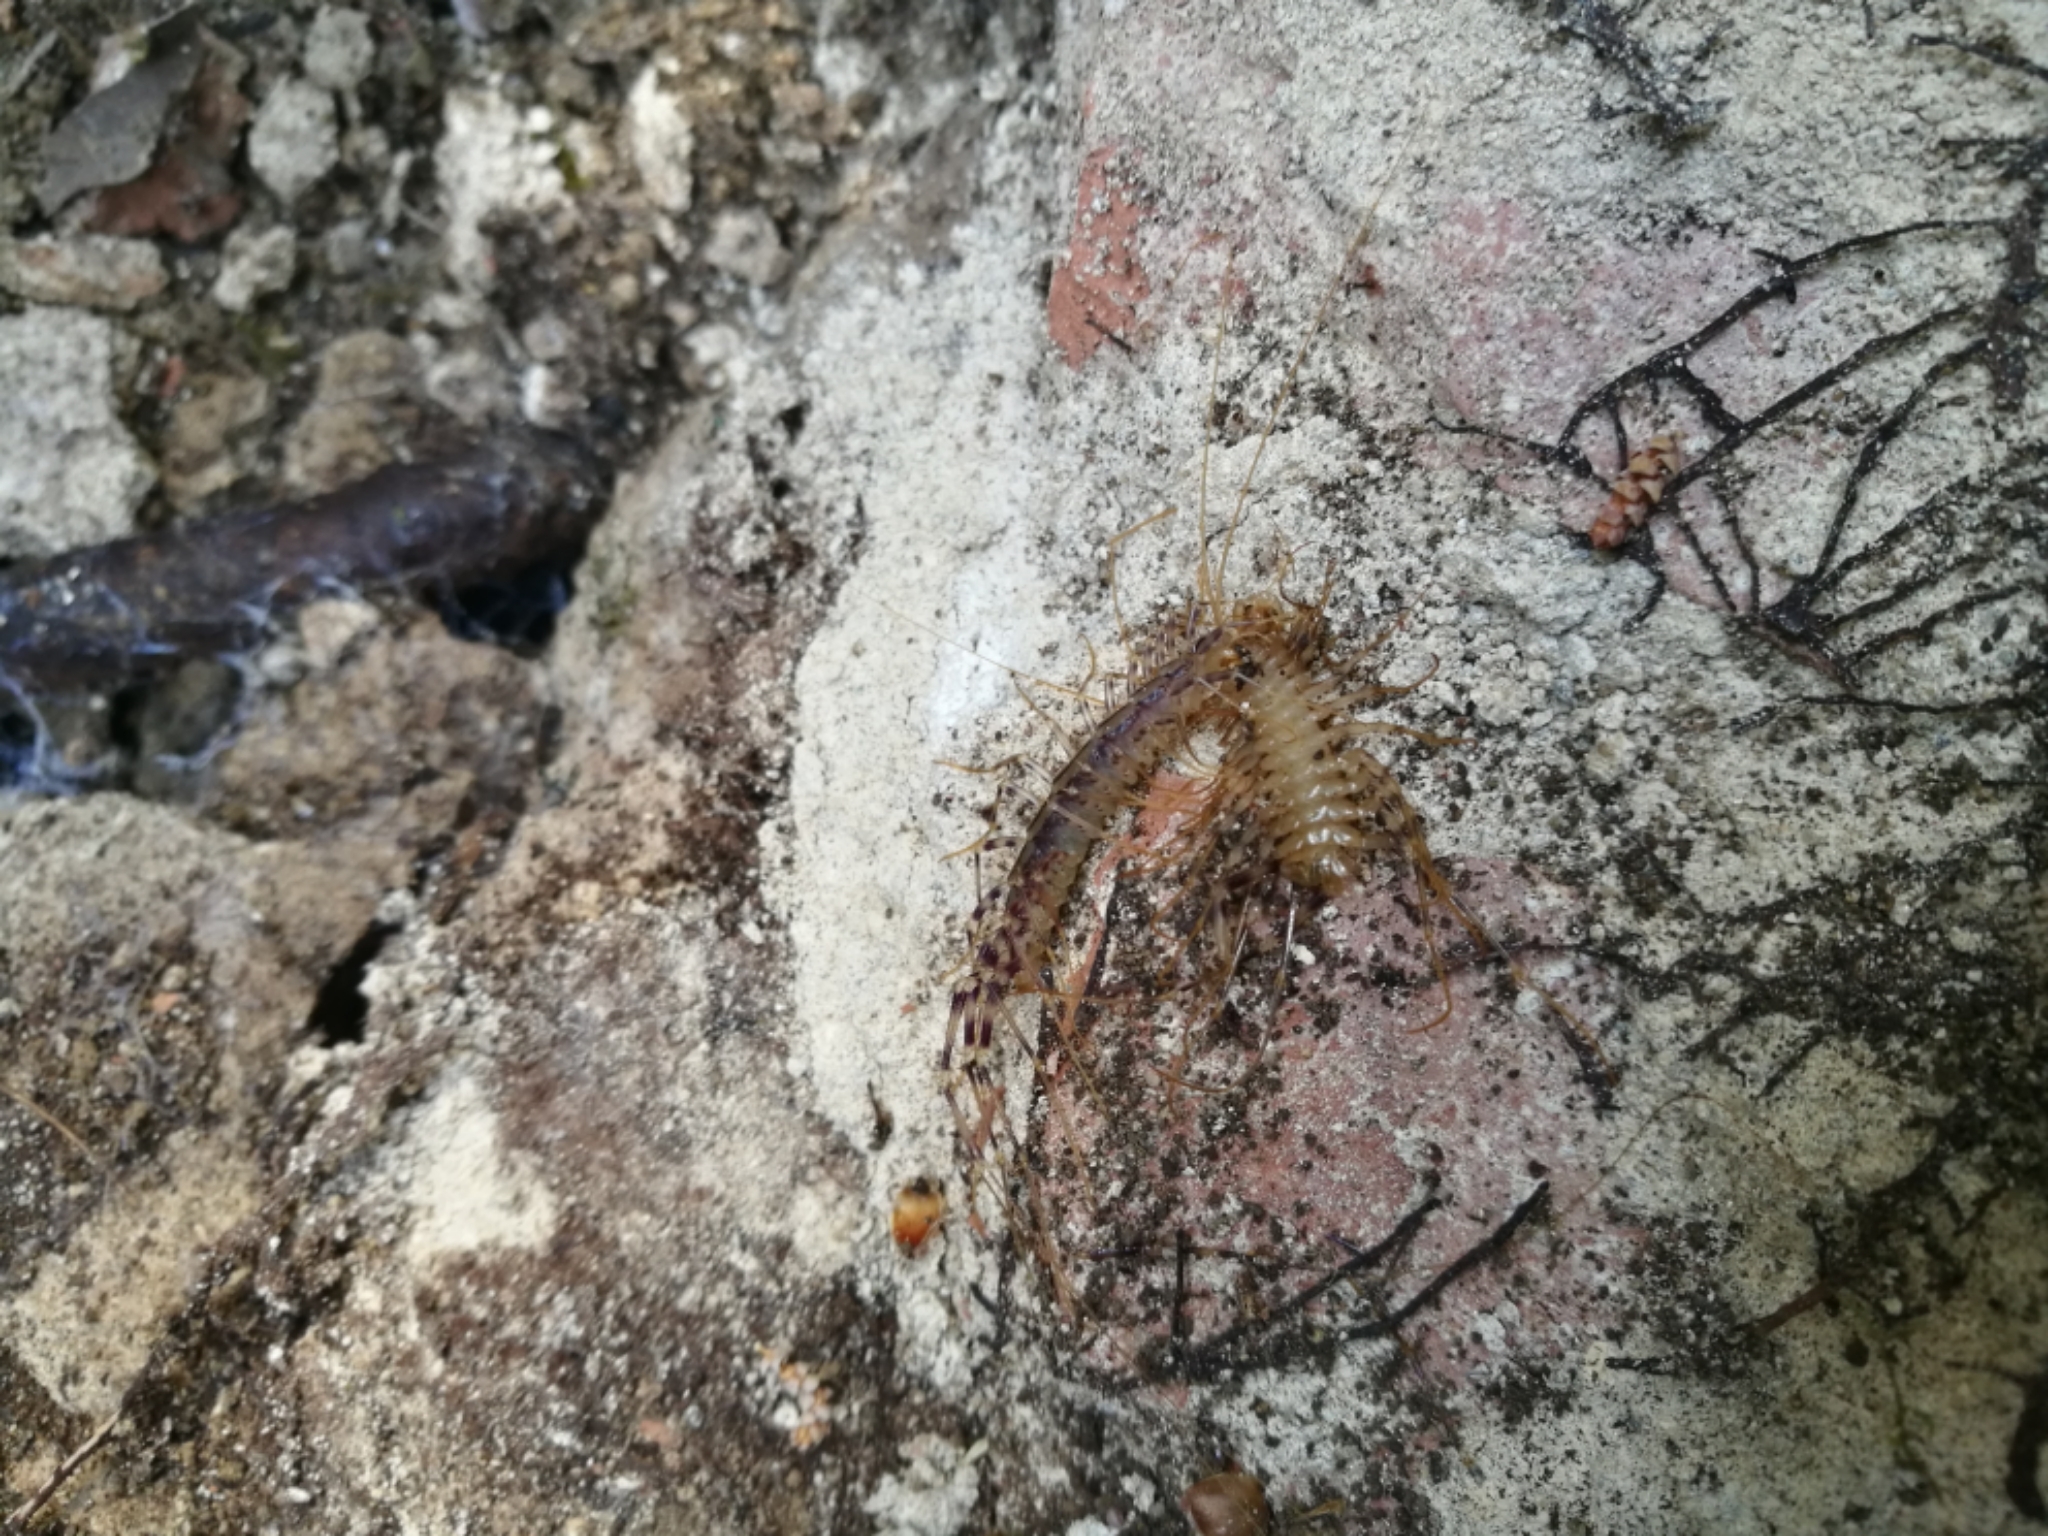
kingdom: Animalia
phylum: Arthropoda
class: Chilopoda
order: Scutigeromorpha
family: Scutigeridae
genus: Scutigera
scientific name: Scutigera coleoptrata
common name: House centipede
